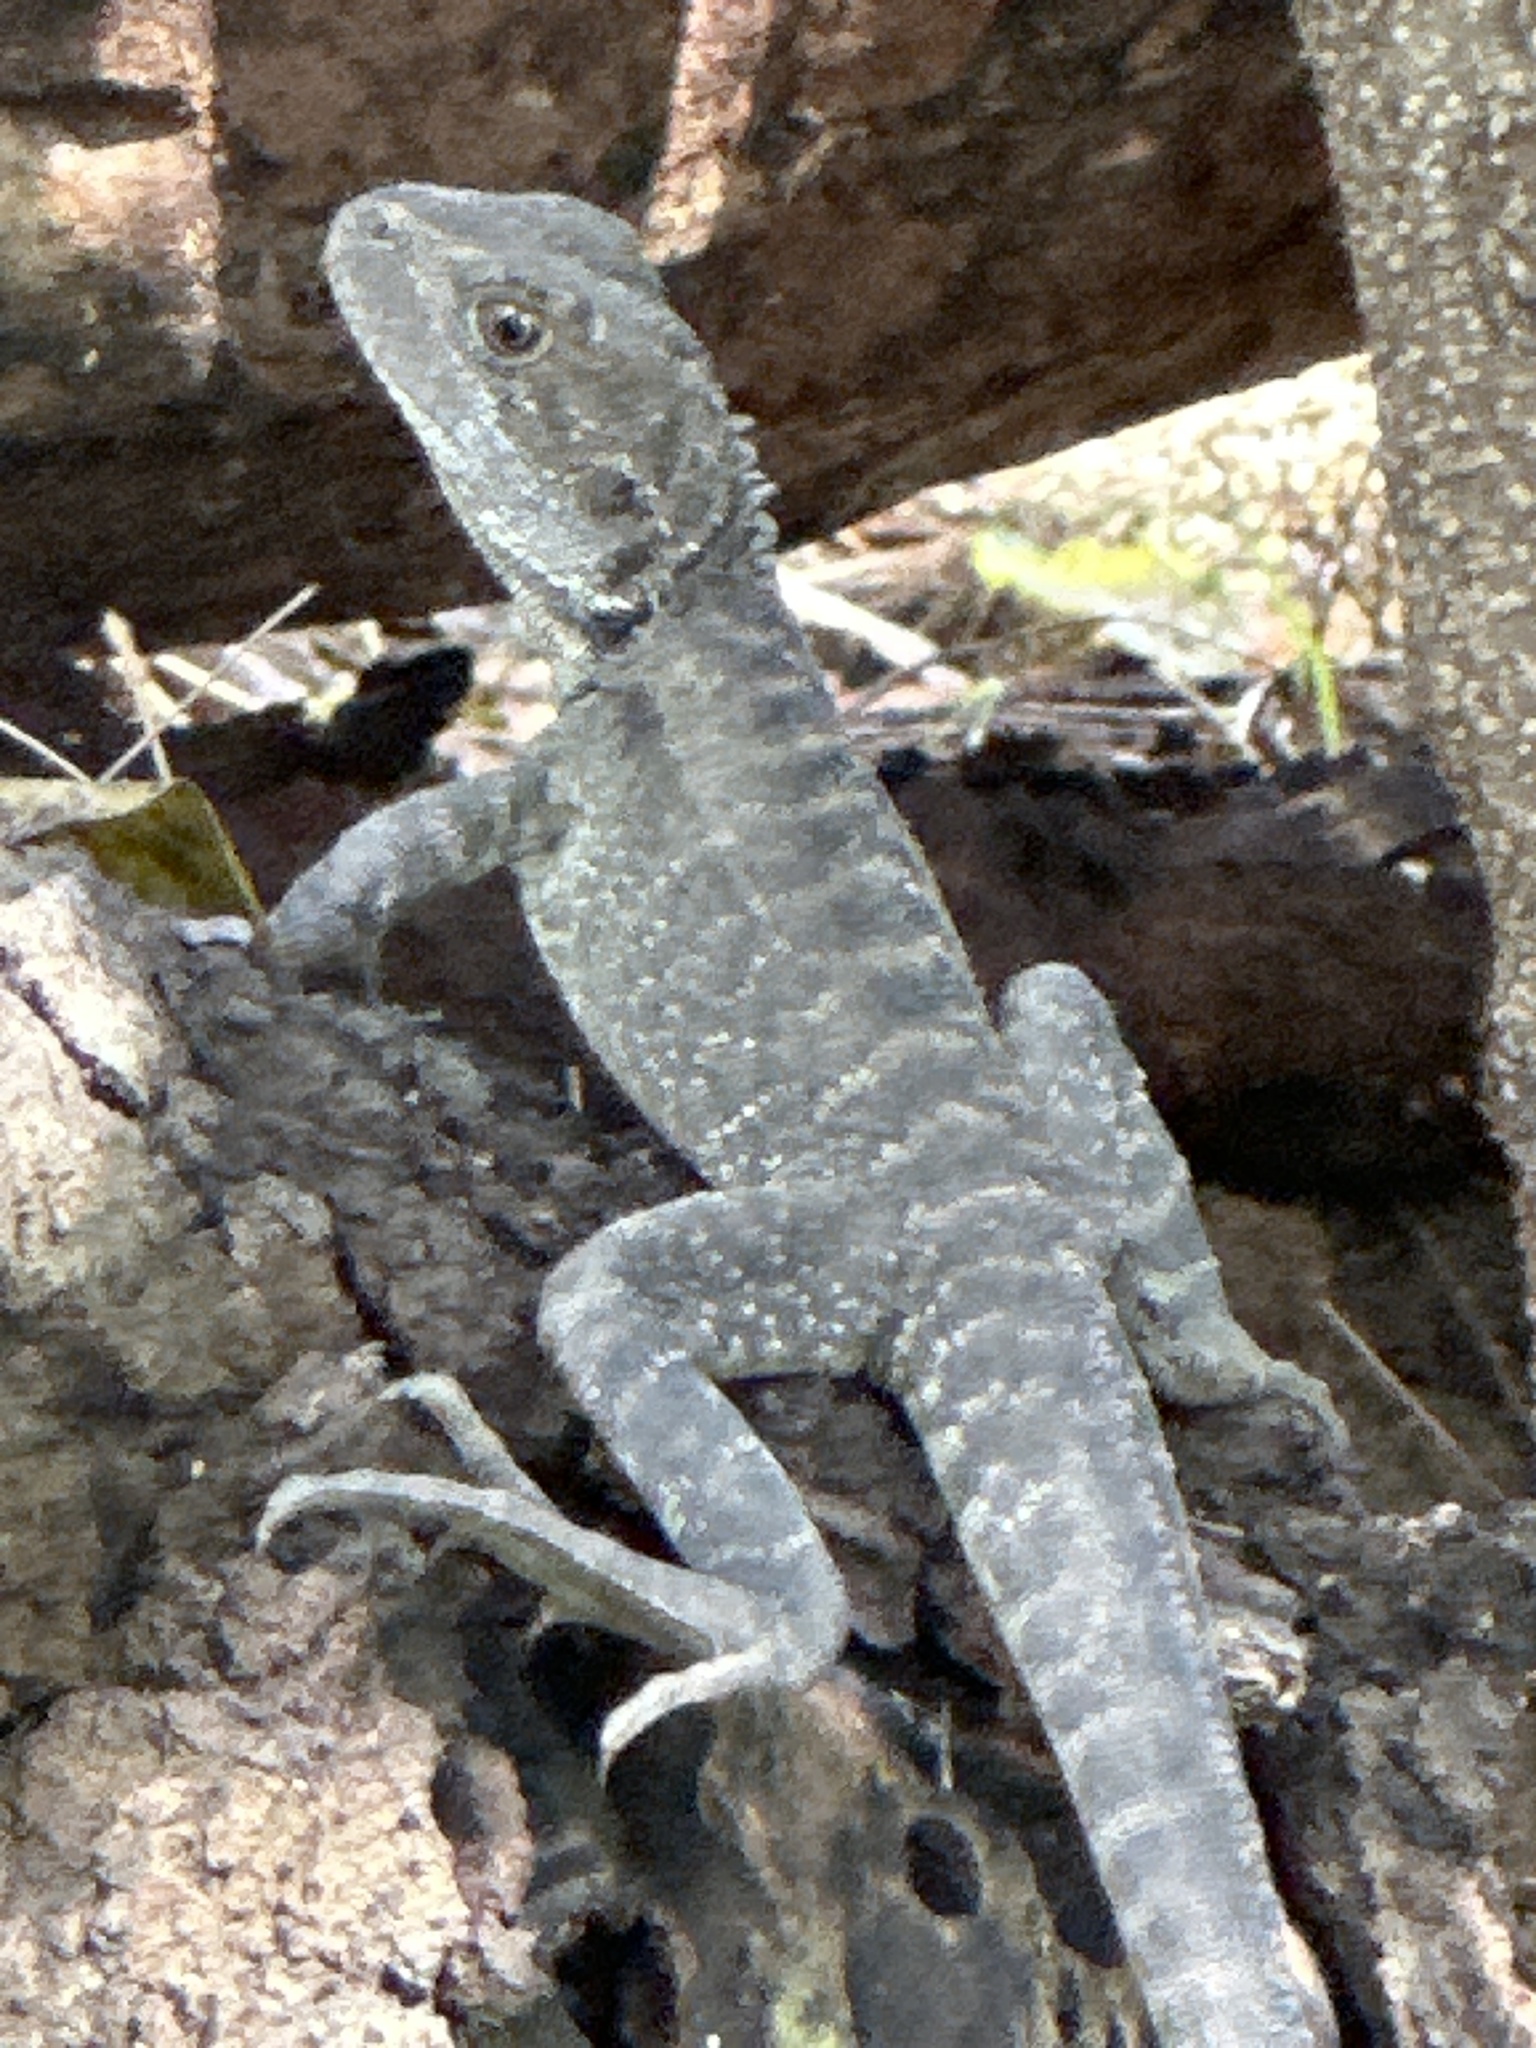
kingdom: Animalia
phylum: Chordata
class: Squamata
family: Agamidae
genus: Intellagama
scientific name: Intellagama lesueurii
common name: Eastern water dragon
